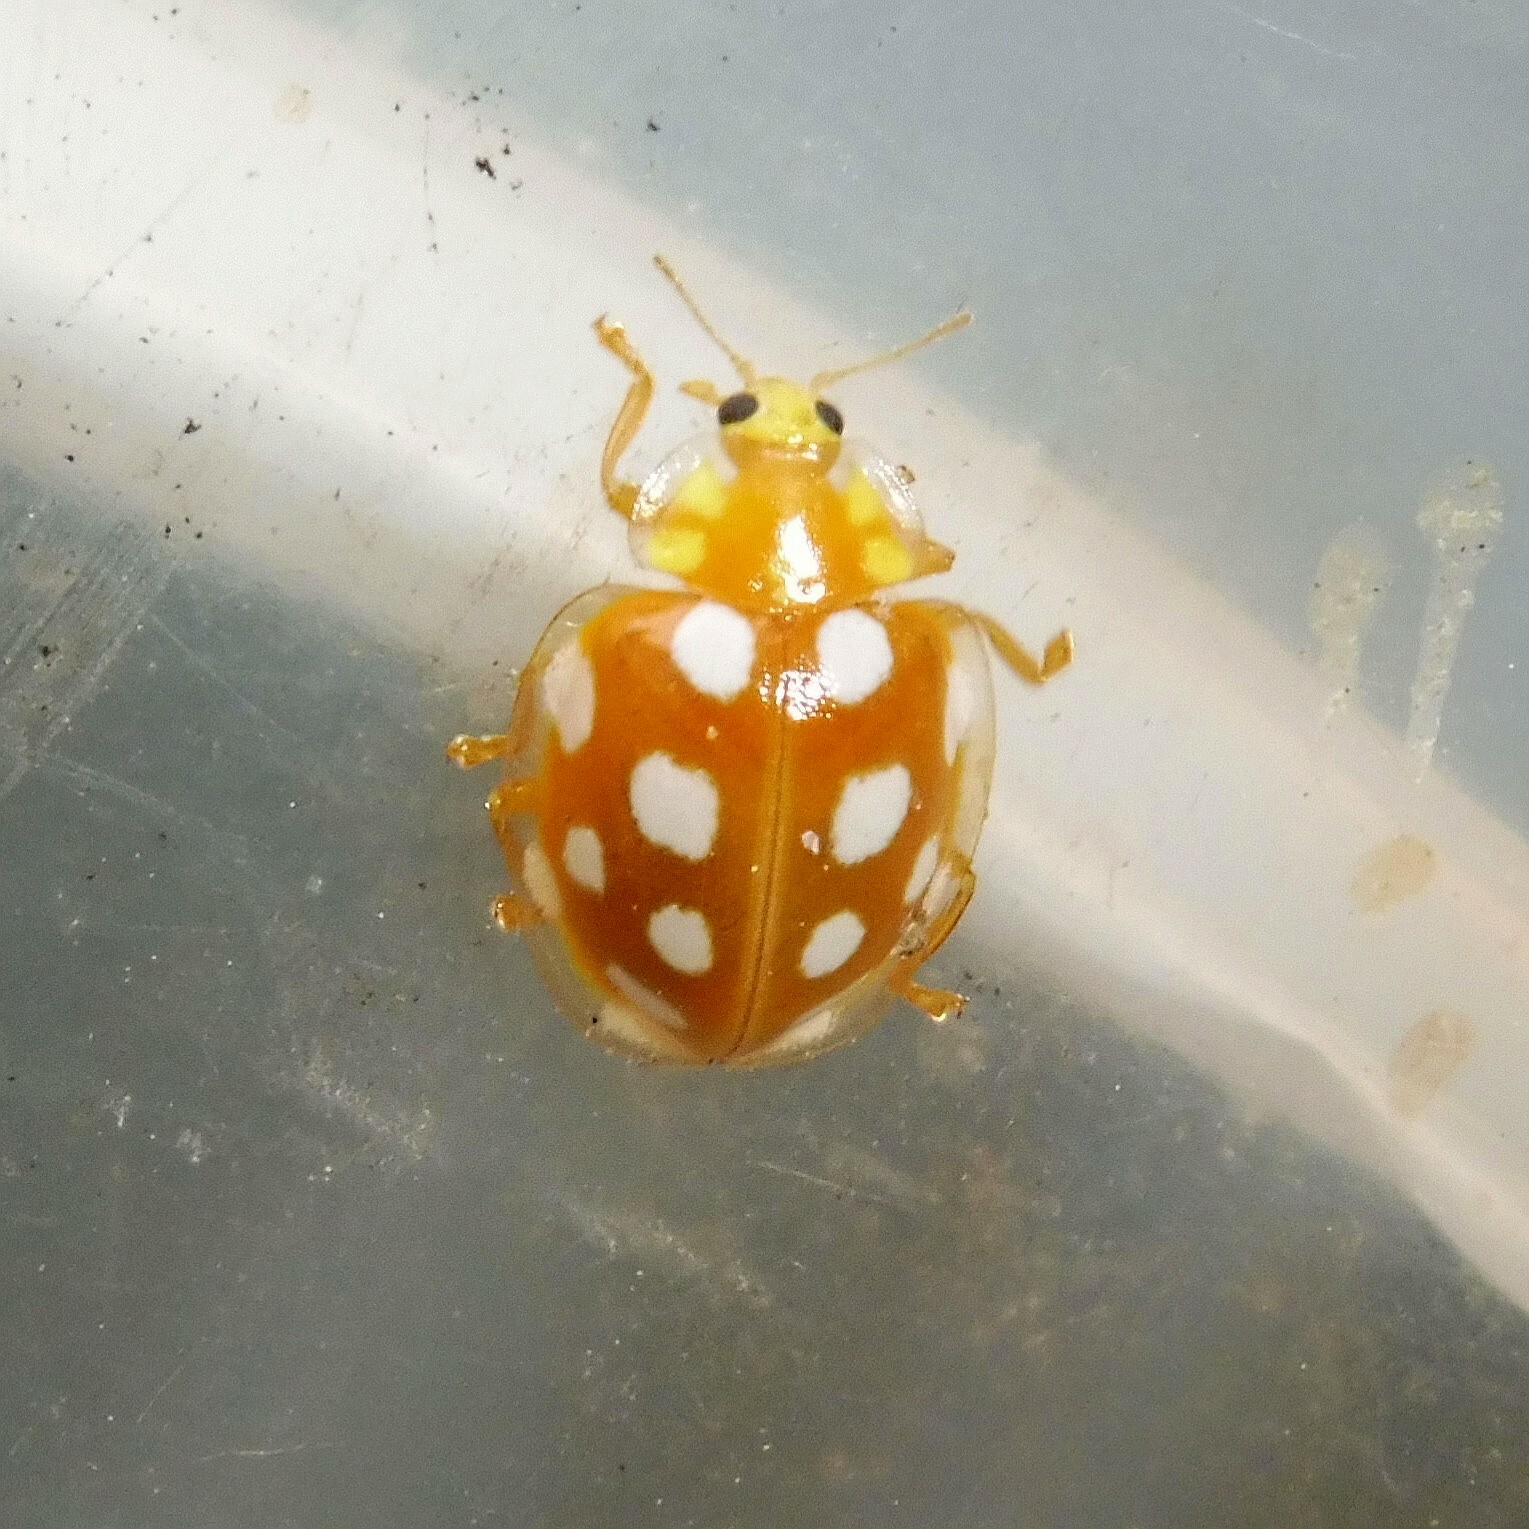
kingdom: Animalia
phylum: Arthropoda
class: Insecta
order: Coleoptera
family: Coccinellidae
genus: Halyzia
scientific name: Halyzia sedecimguttata
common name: Orange ladybird
